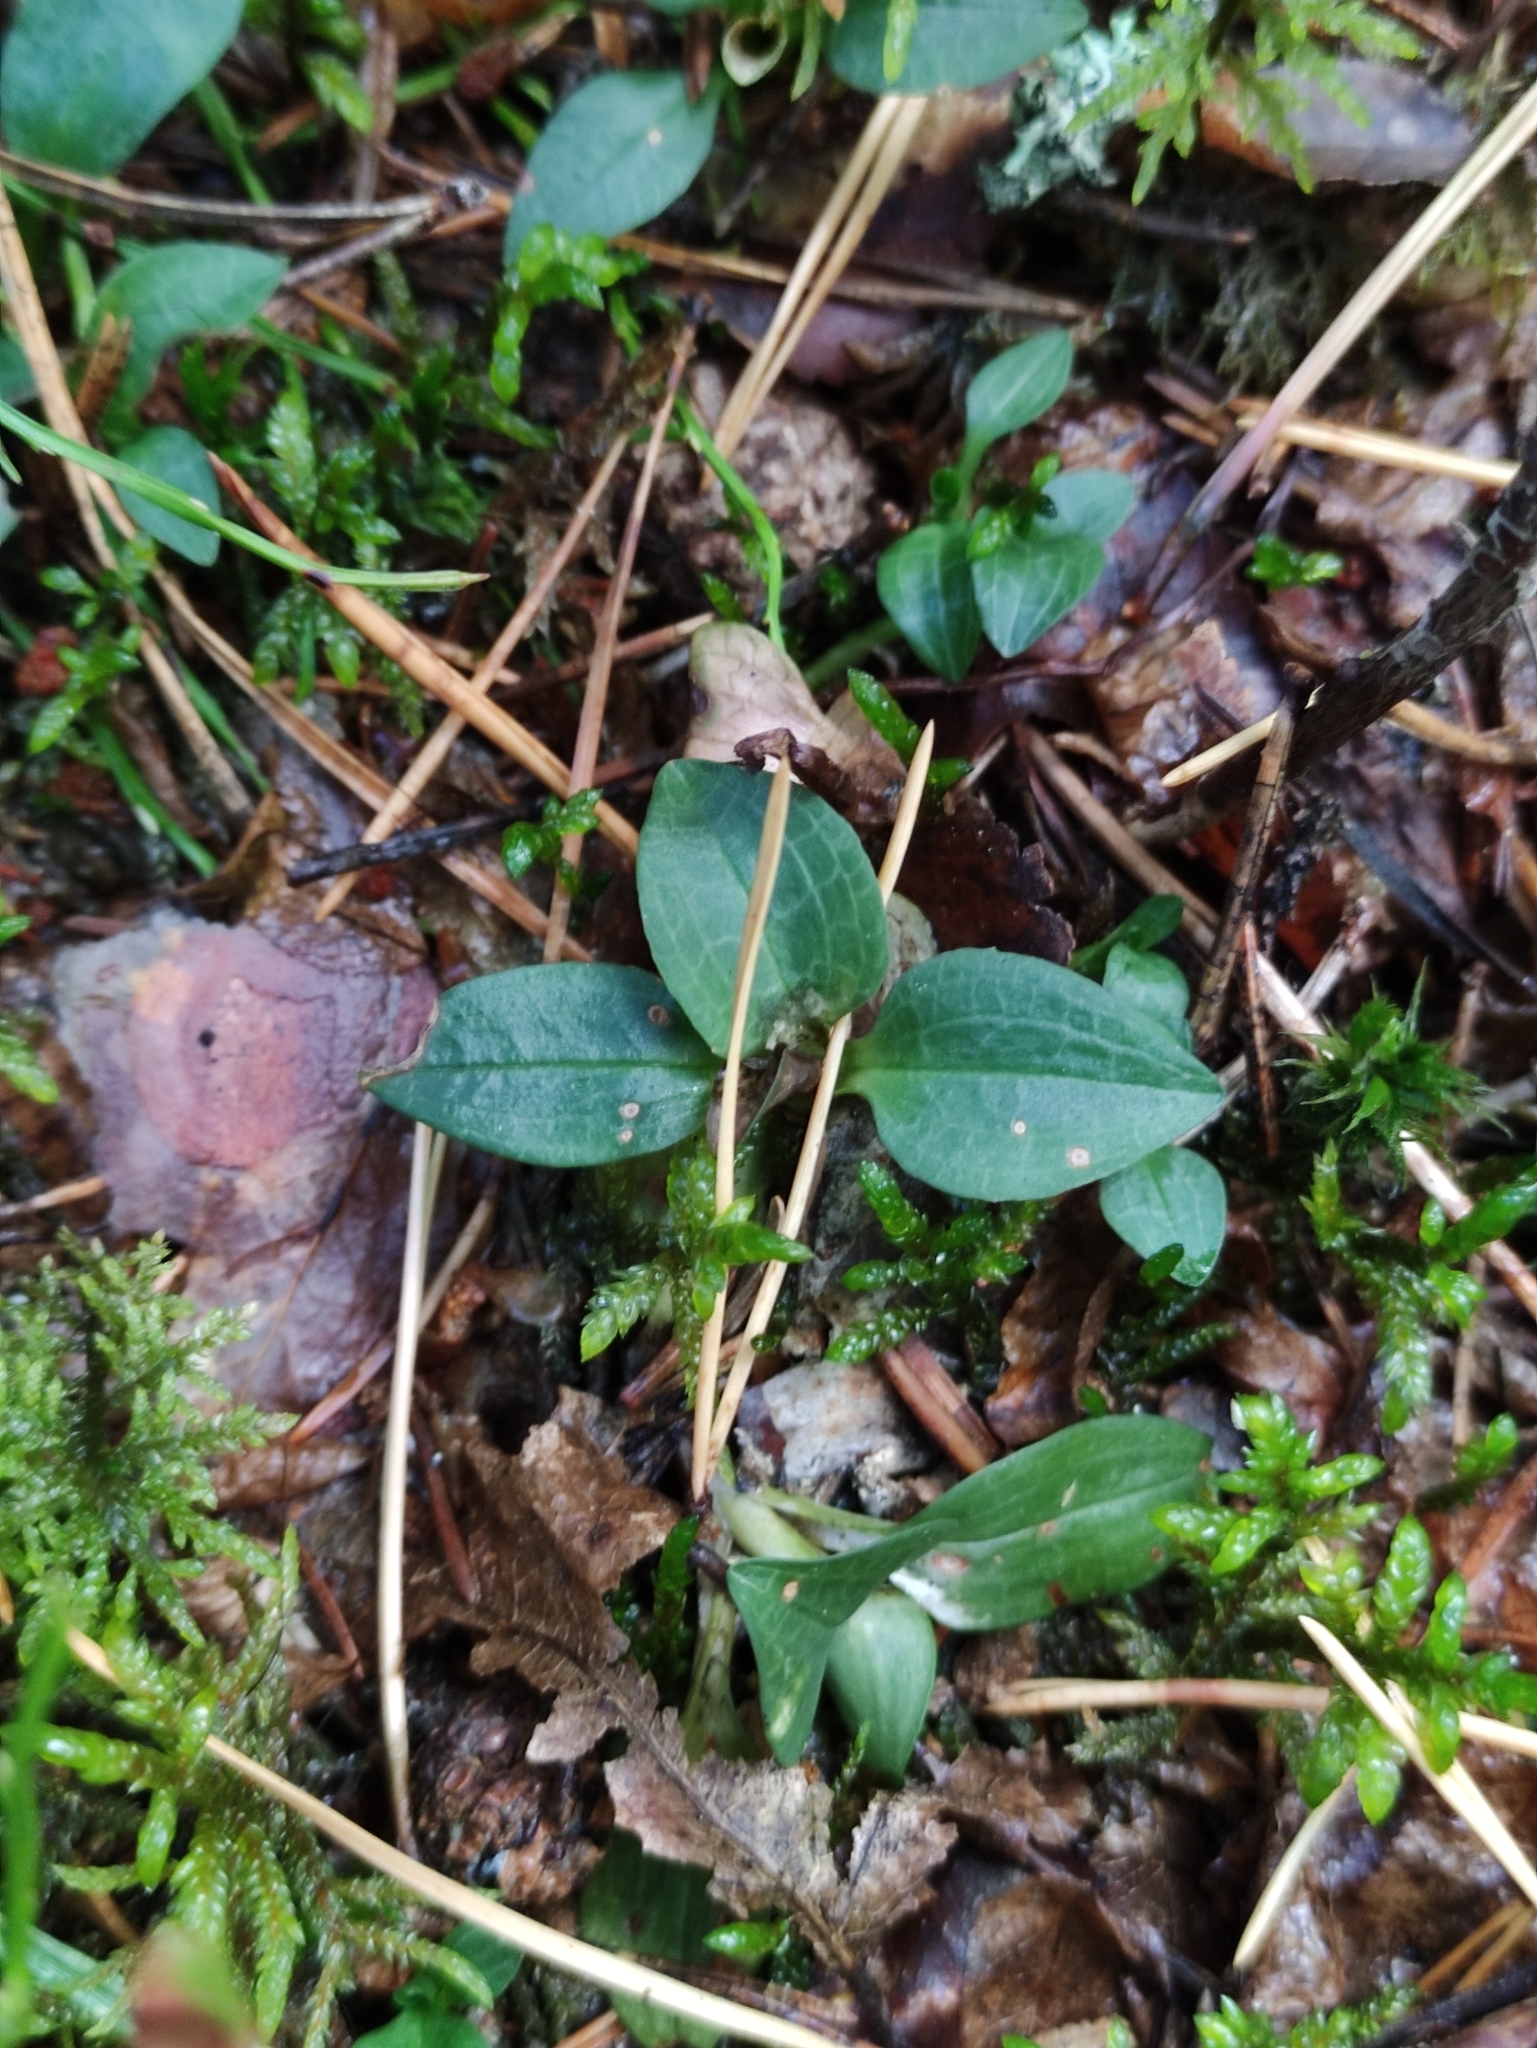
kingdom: Plantae
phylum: Tracheophyta
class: Liliopsida
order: Asparagales
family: Orchidaceae
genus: Goodyera
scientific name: Goodyera repens
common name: Creeping lady's-tresses
